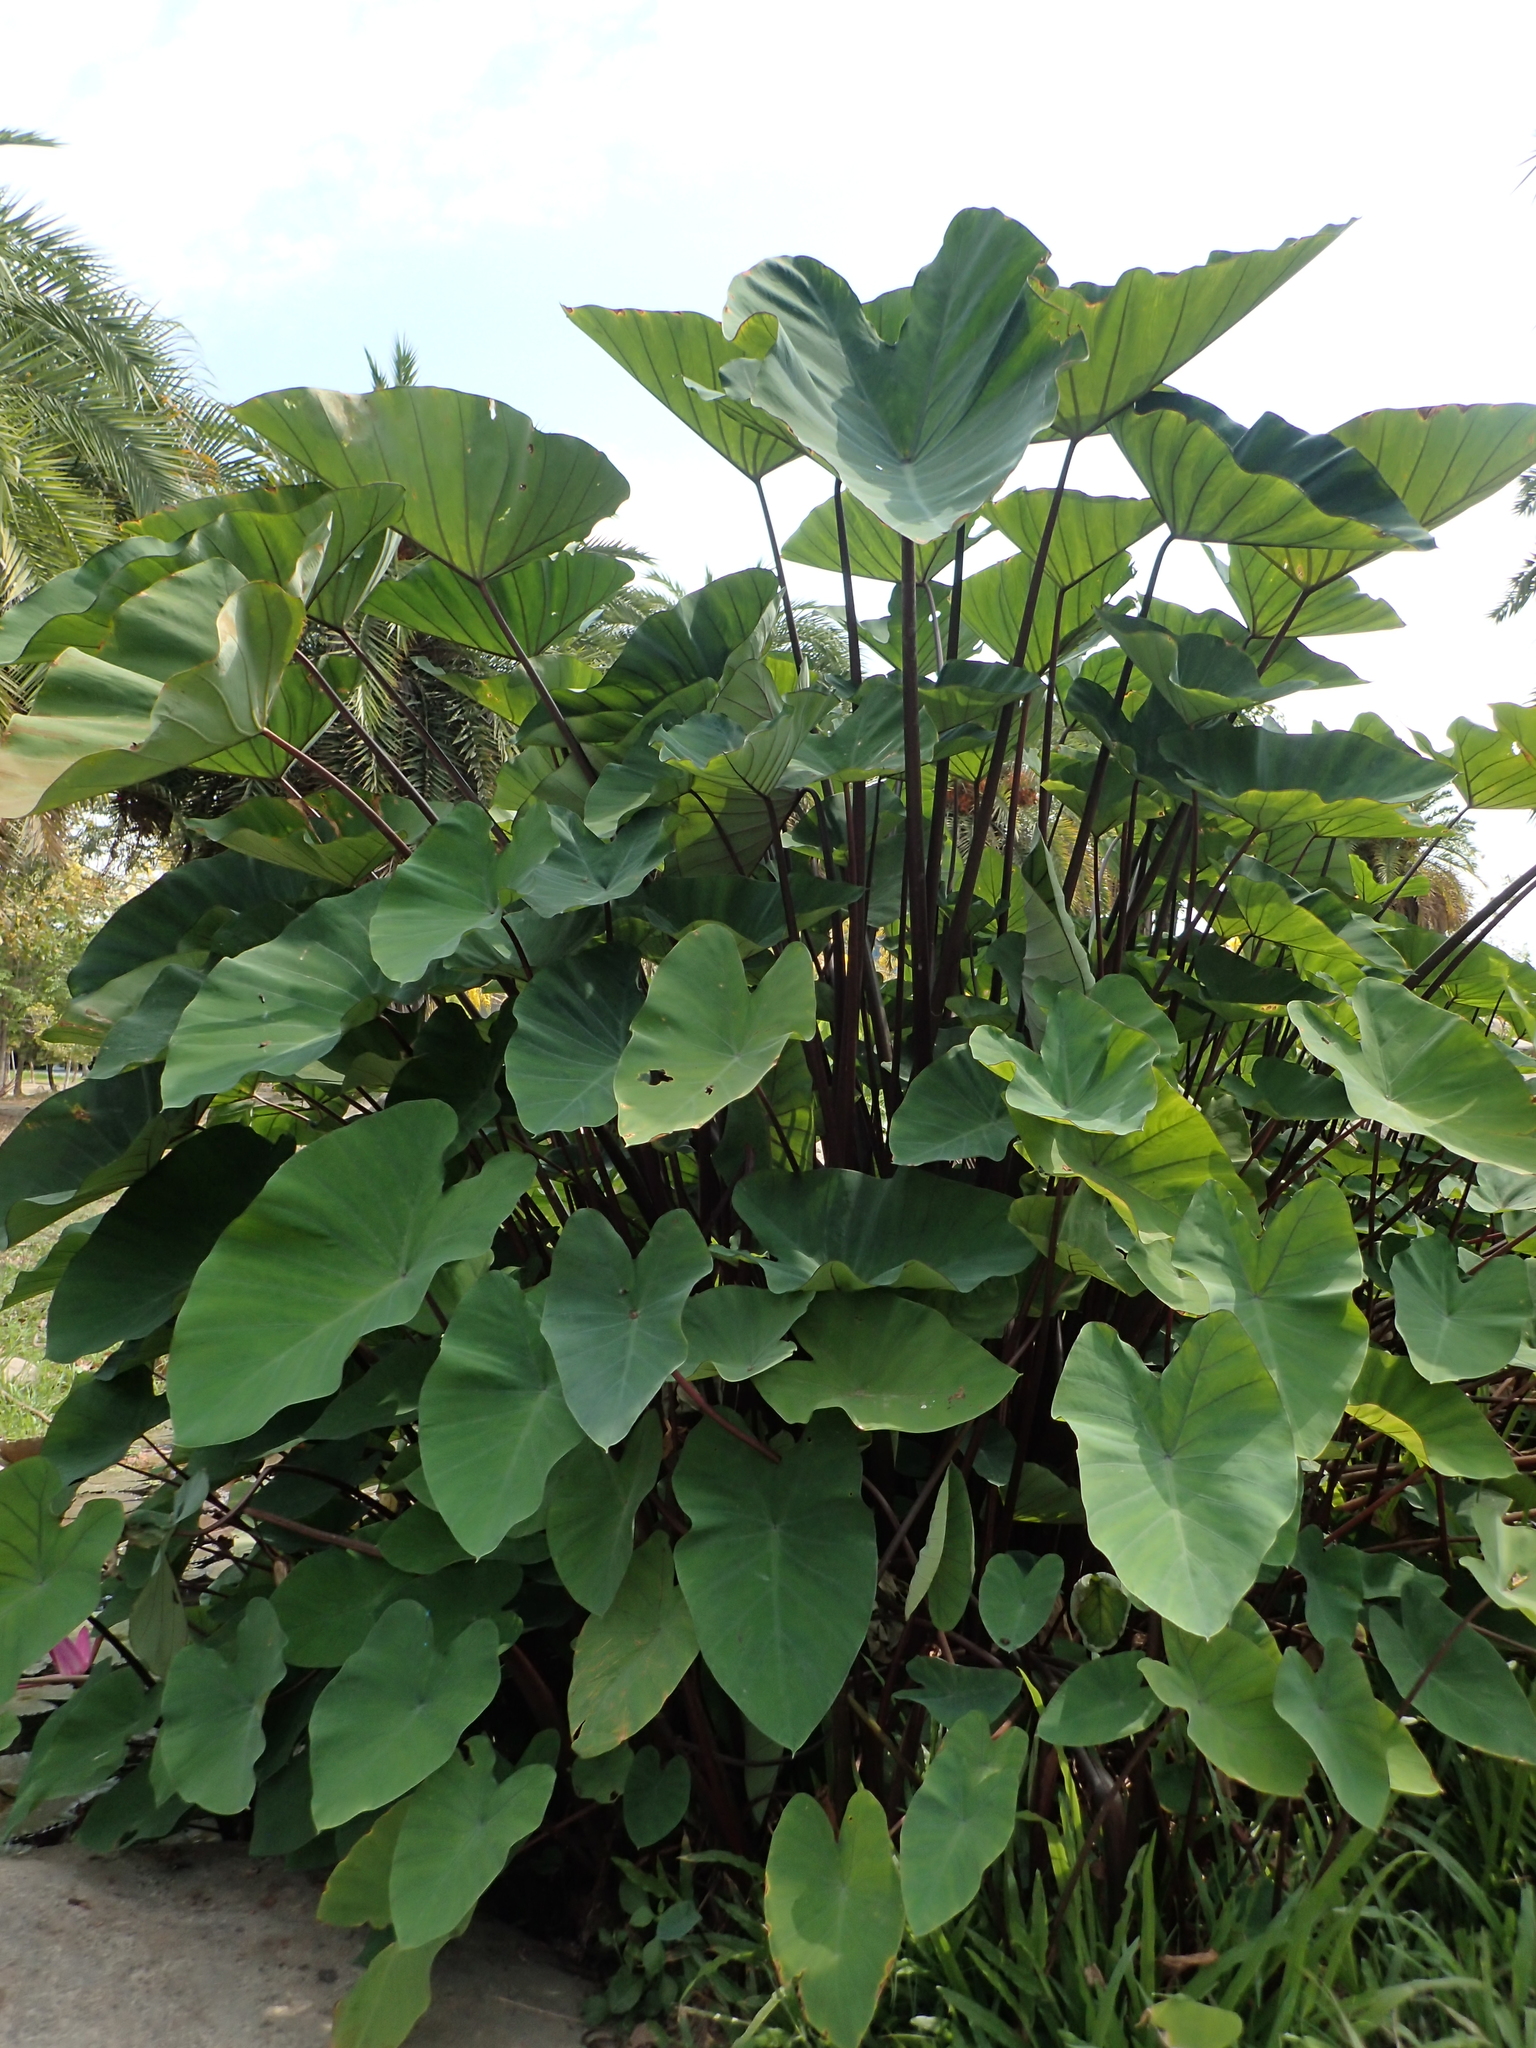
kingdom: Plantae
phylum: Tracheophyta
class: Liliopsida
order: Alismatales
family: Araceae
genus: Colocasia
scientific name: Colocasia esculenta
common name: Taro
